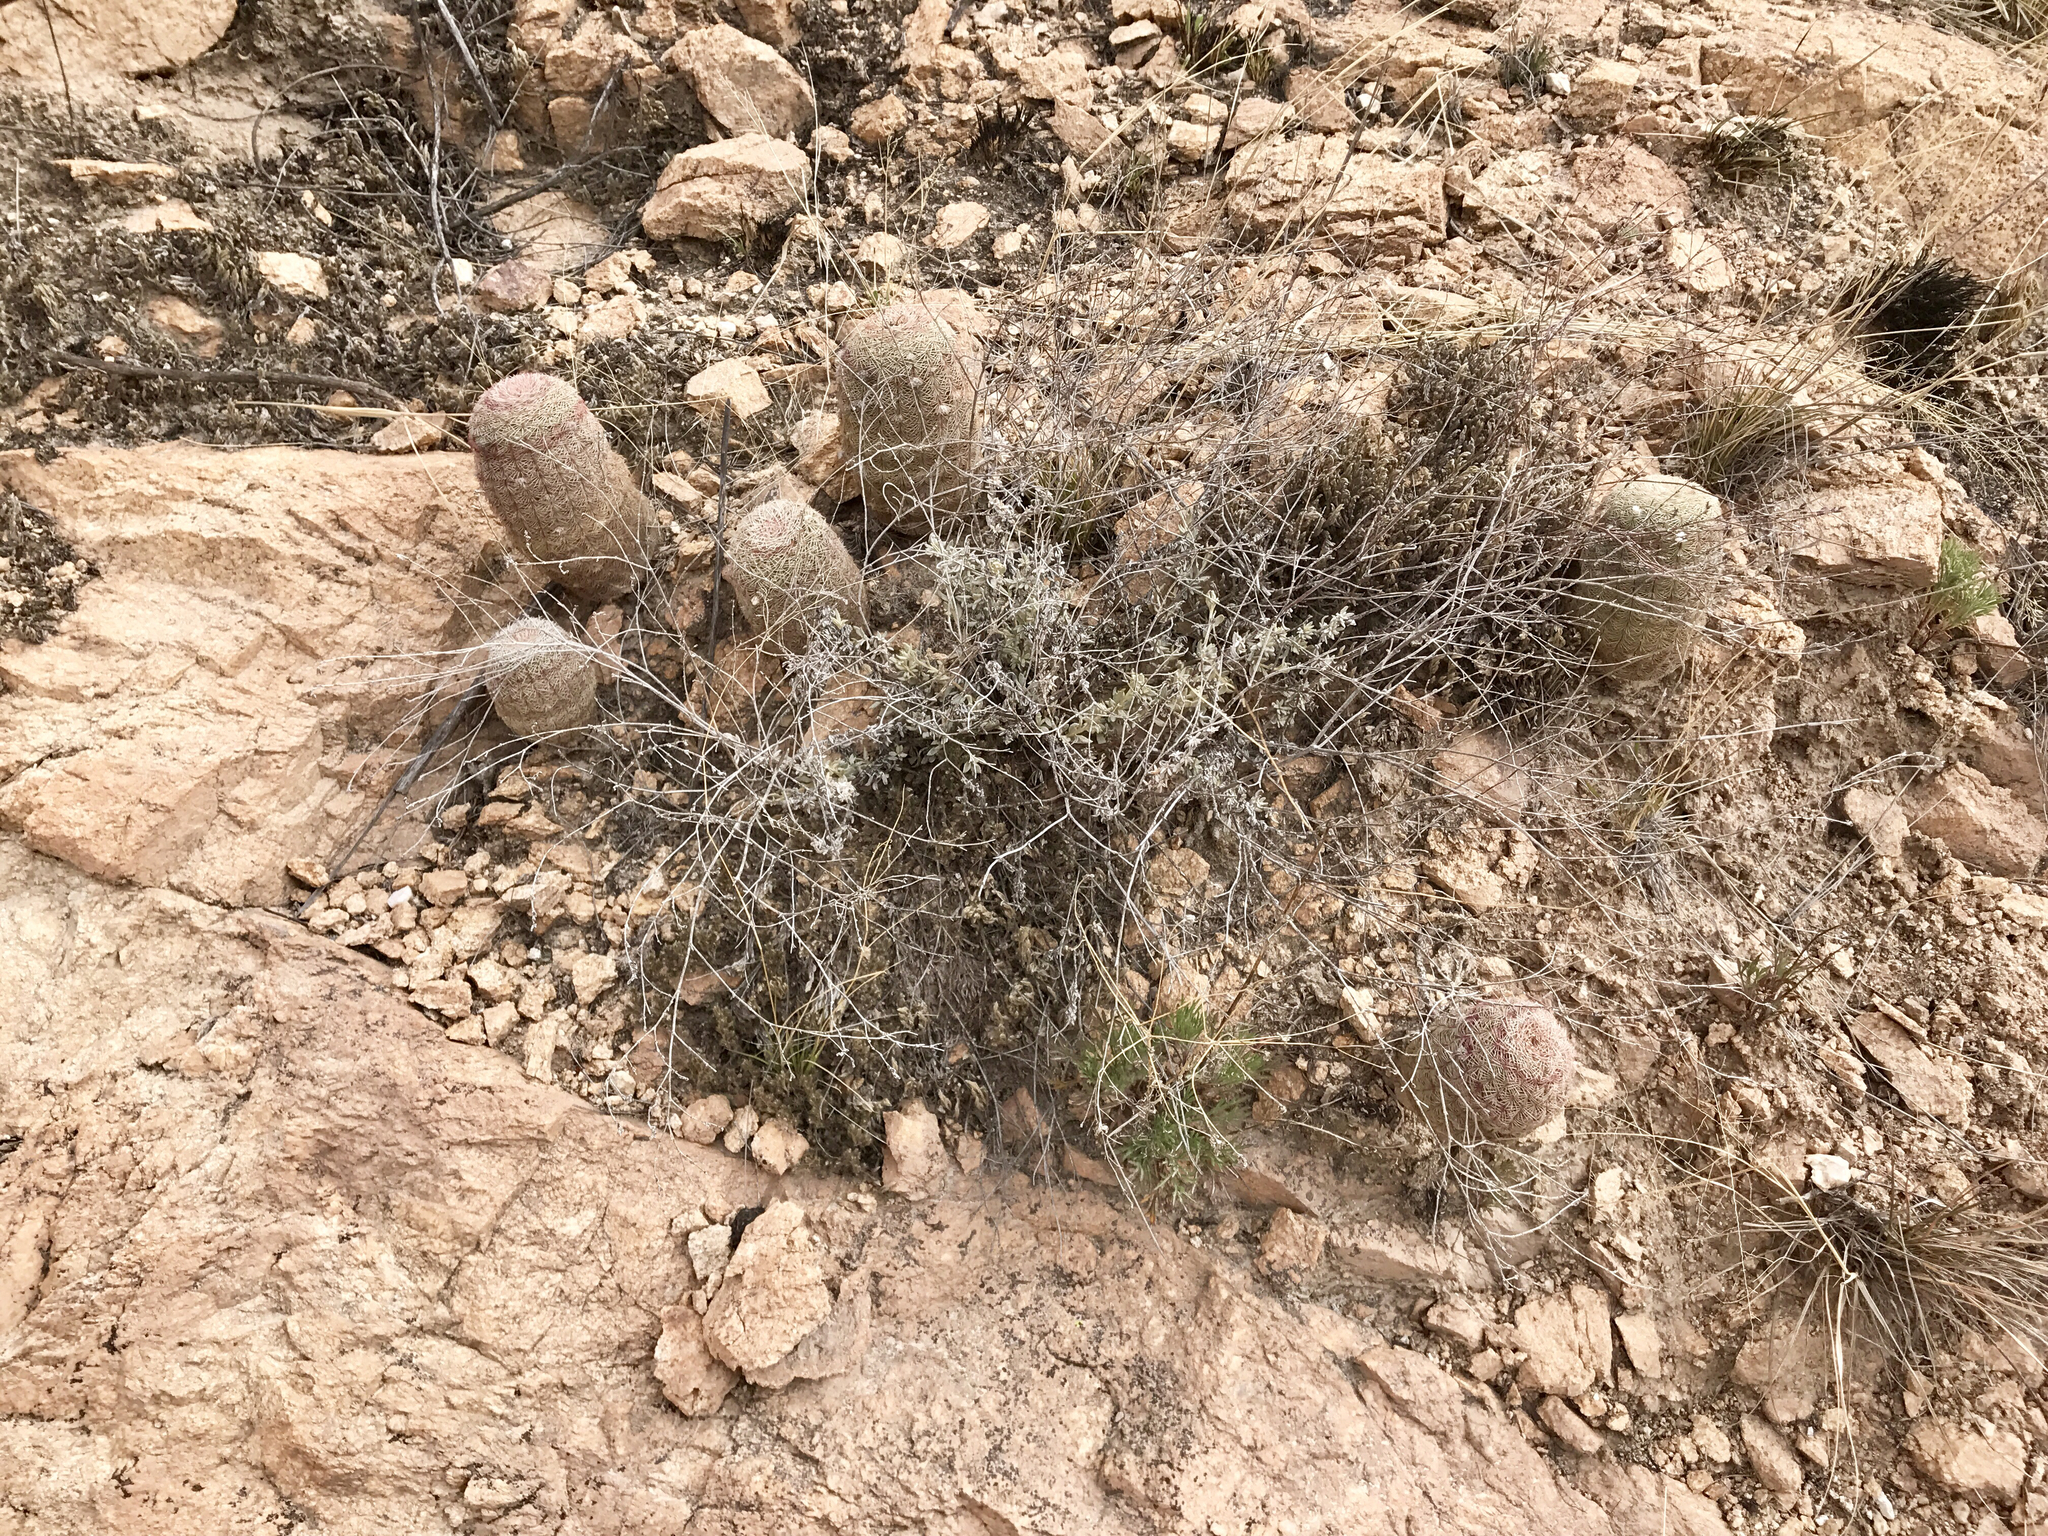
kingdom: Plantae
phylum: Tracheophyta
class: Magnoliopsida
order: Caryophyllales
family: Cactaceae
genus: Echinocereus
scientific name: Echinocereus rigidissimus
